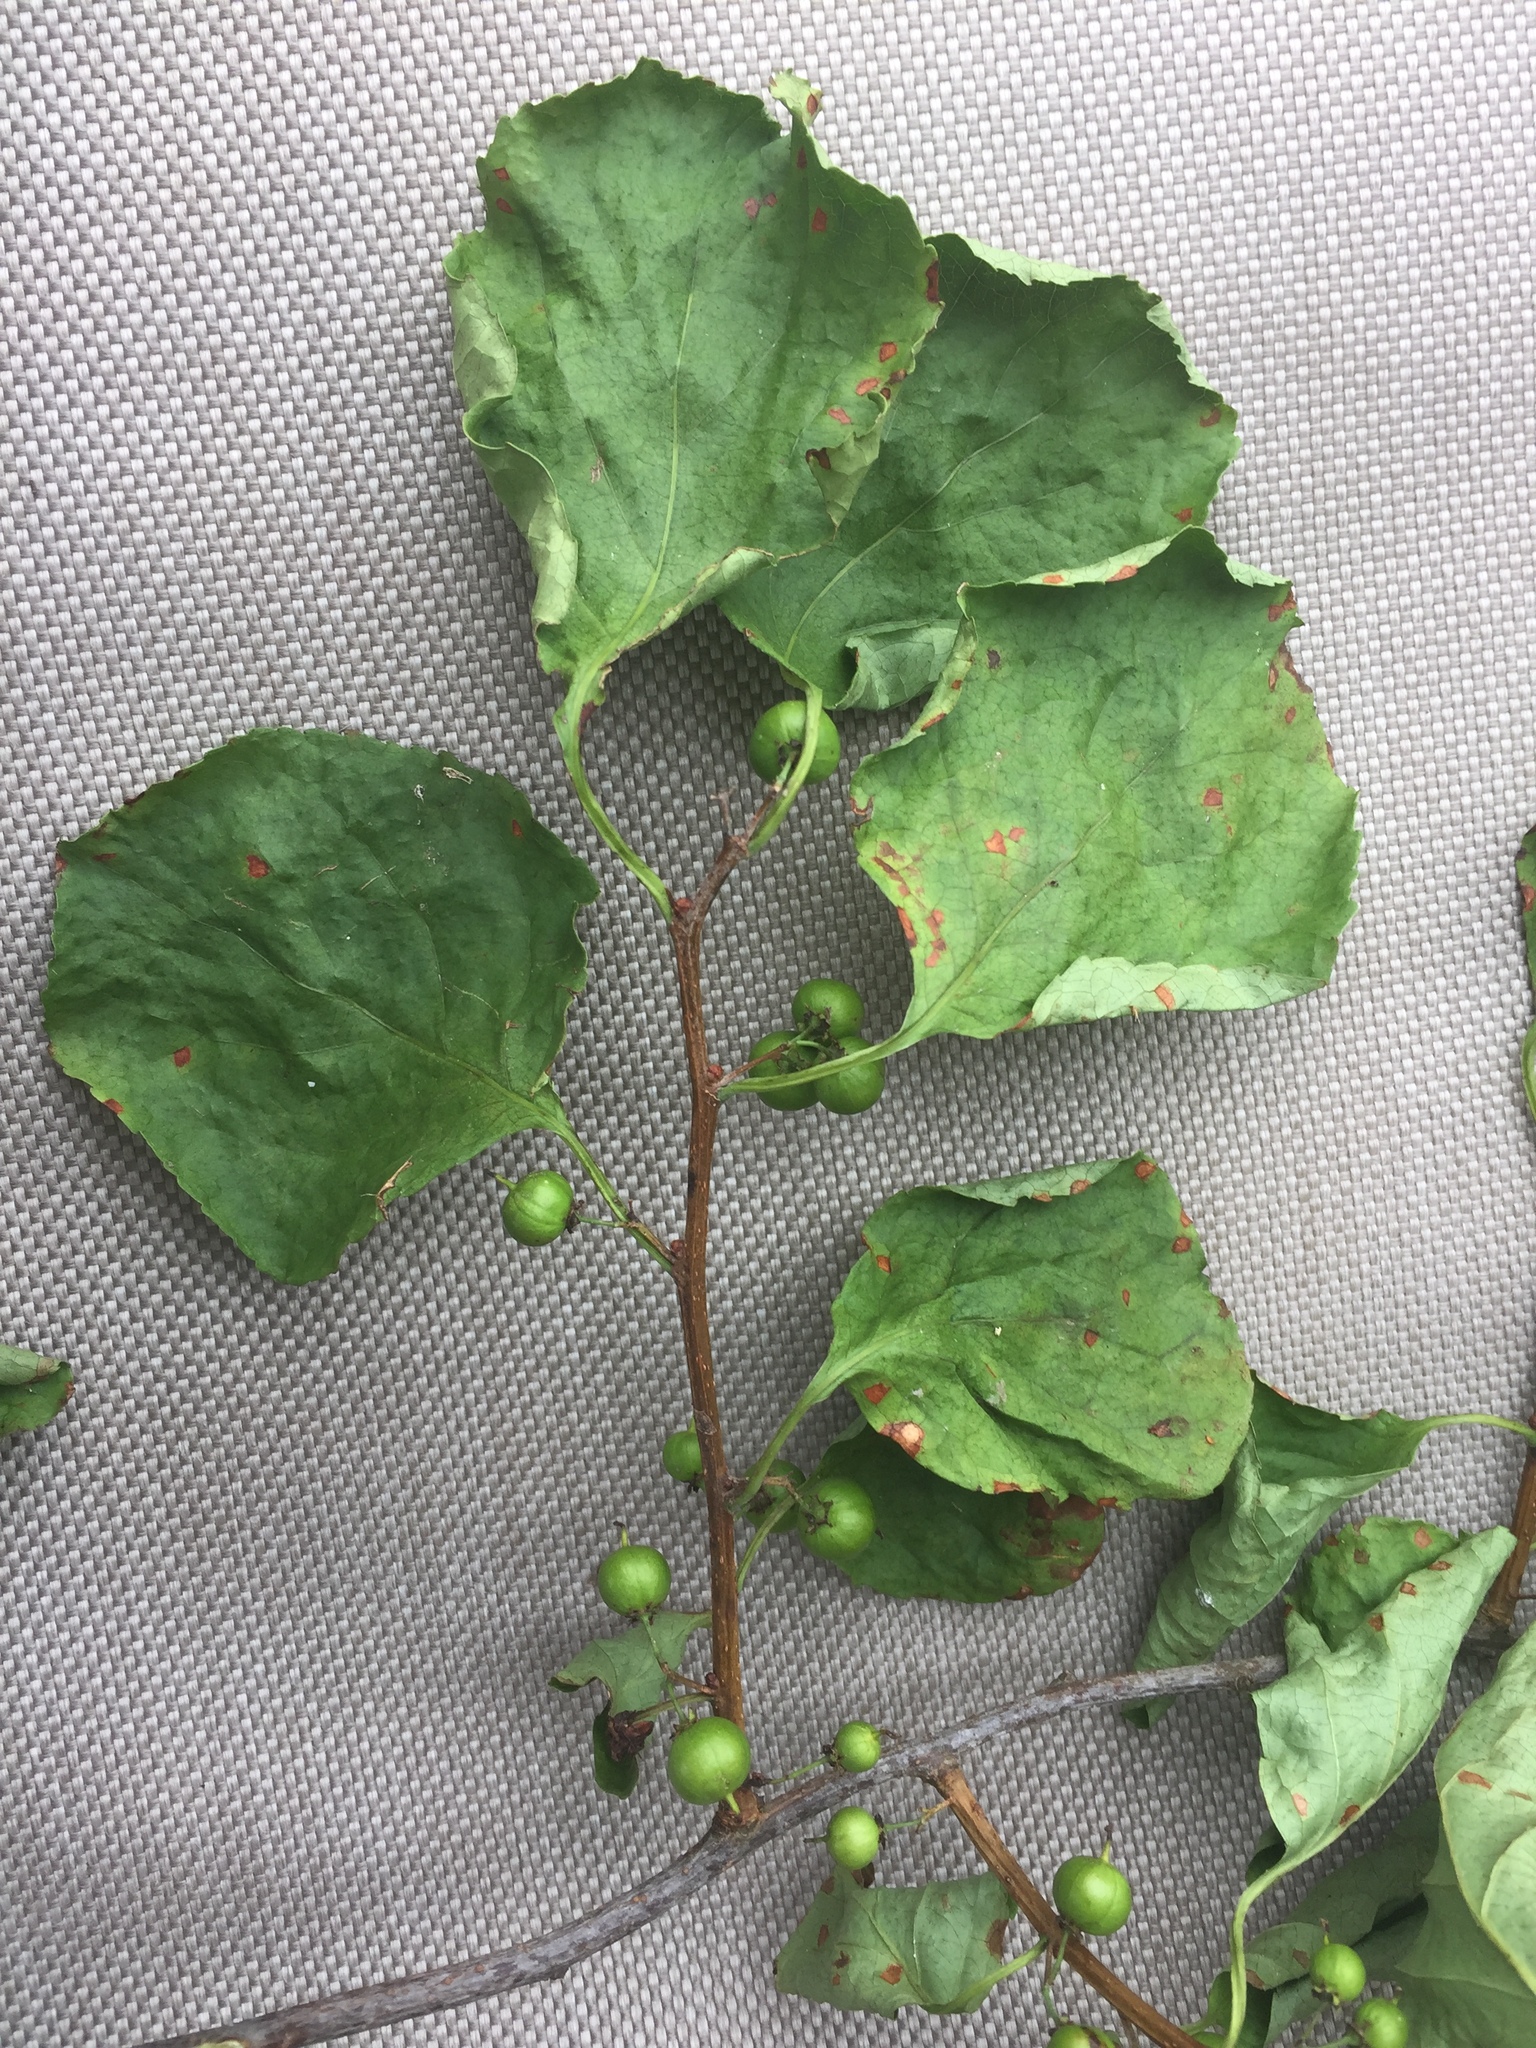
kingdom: Plantae
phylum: Tracheophyta
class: Magnoliopsida
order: Celastrales
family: Celastraceae
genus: Celastrus
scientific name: Celastrus orbiculatus
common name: Oriental bittersweet
